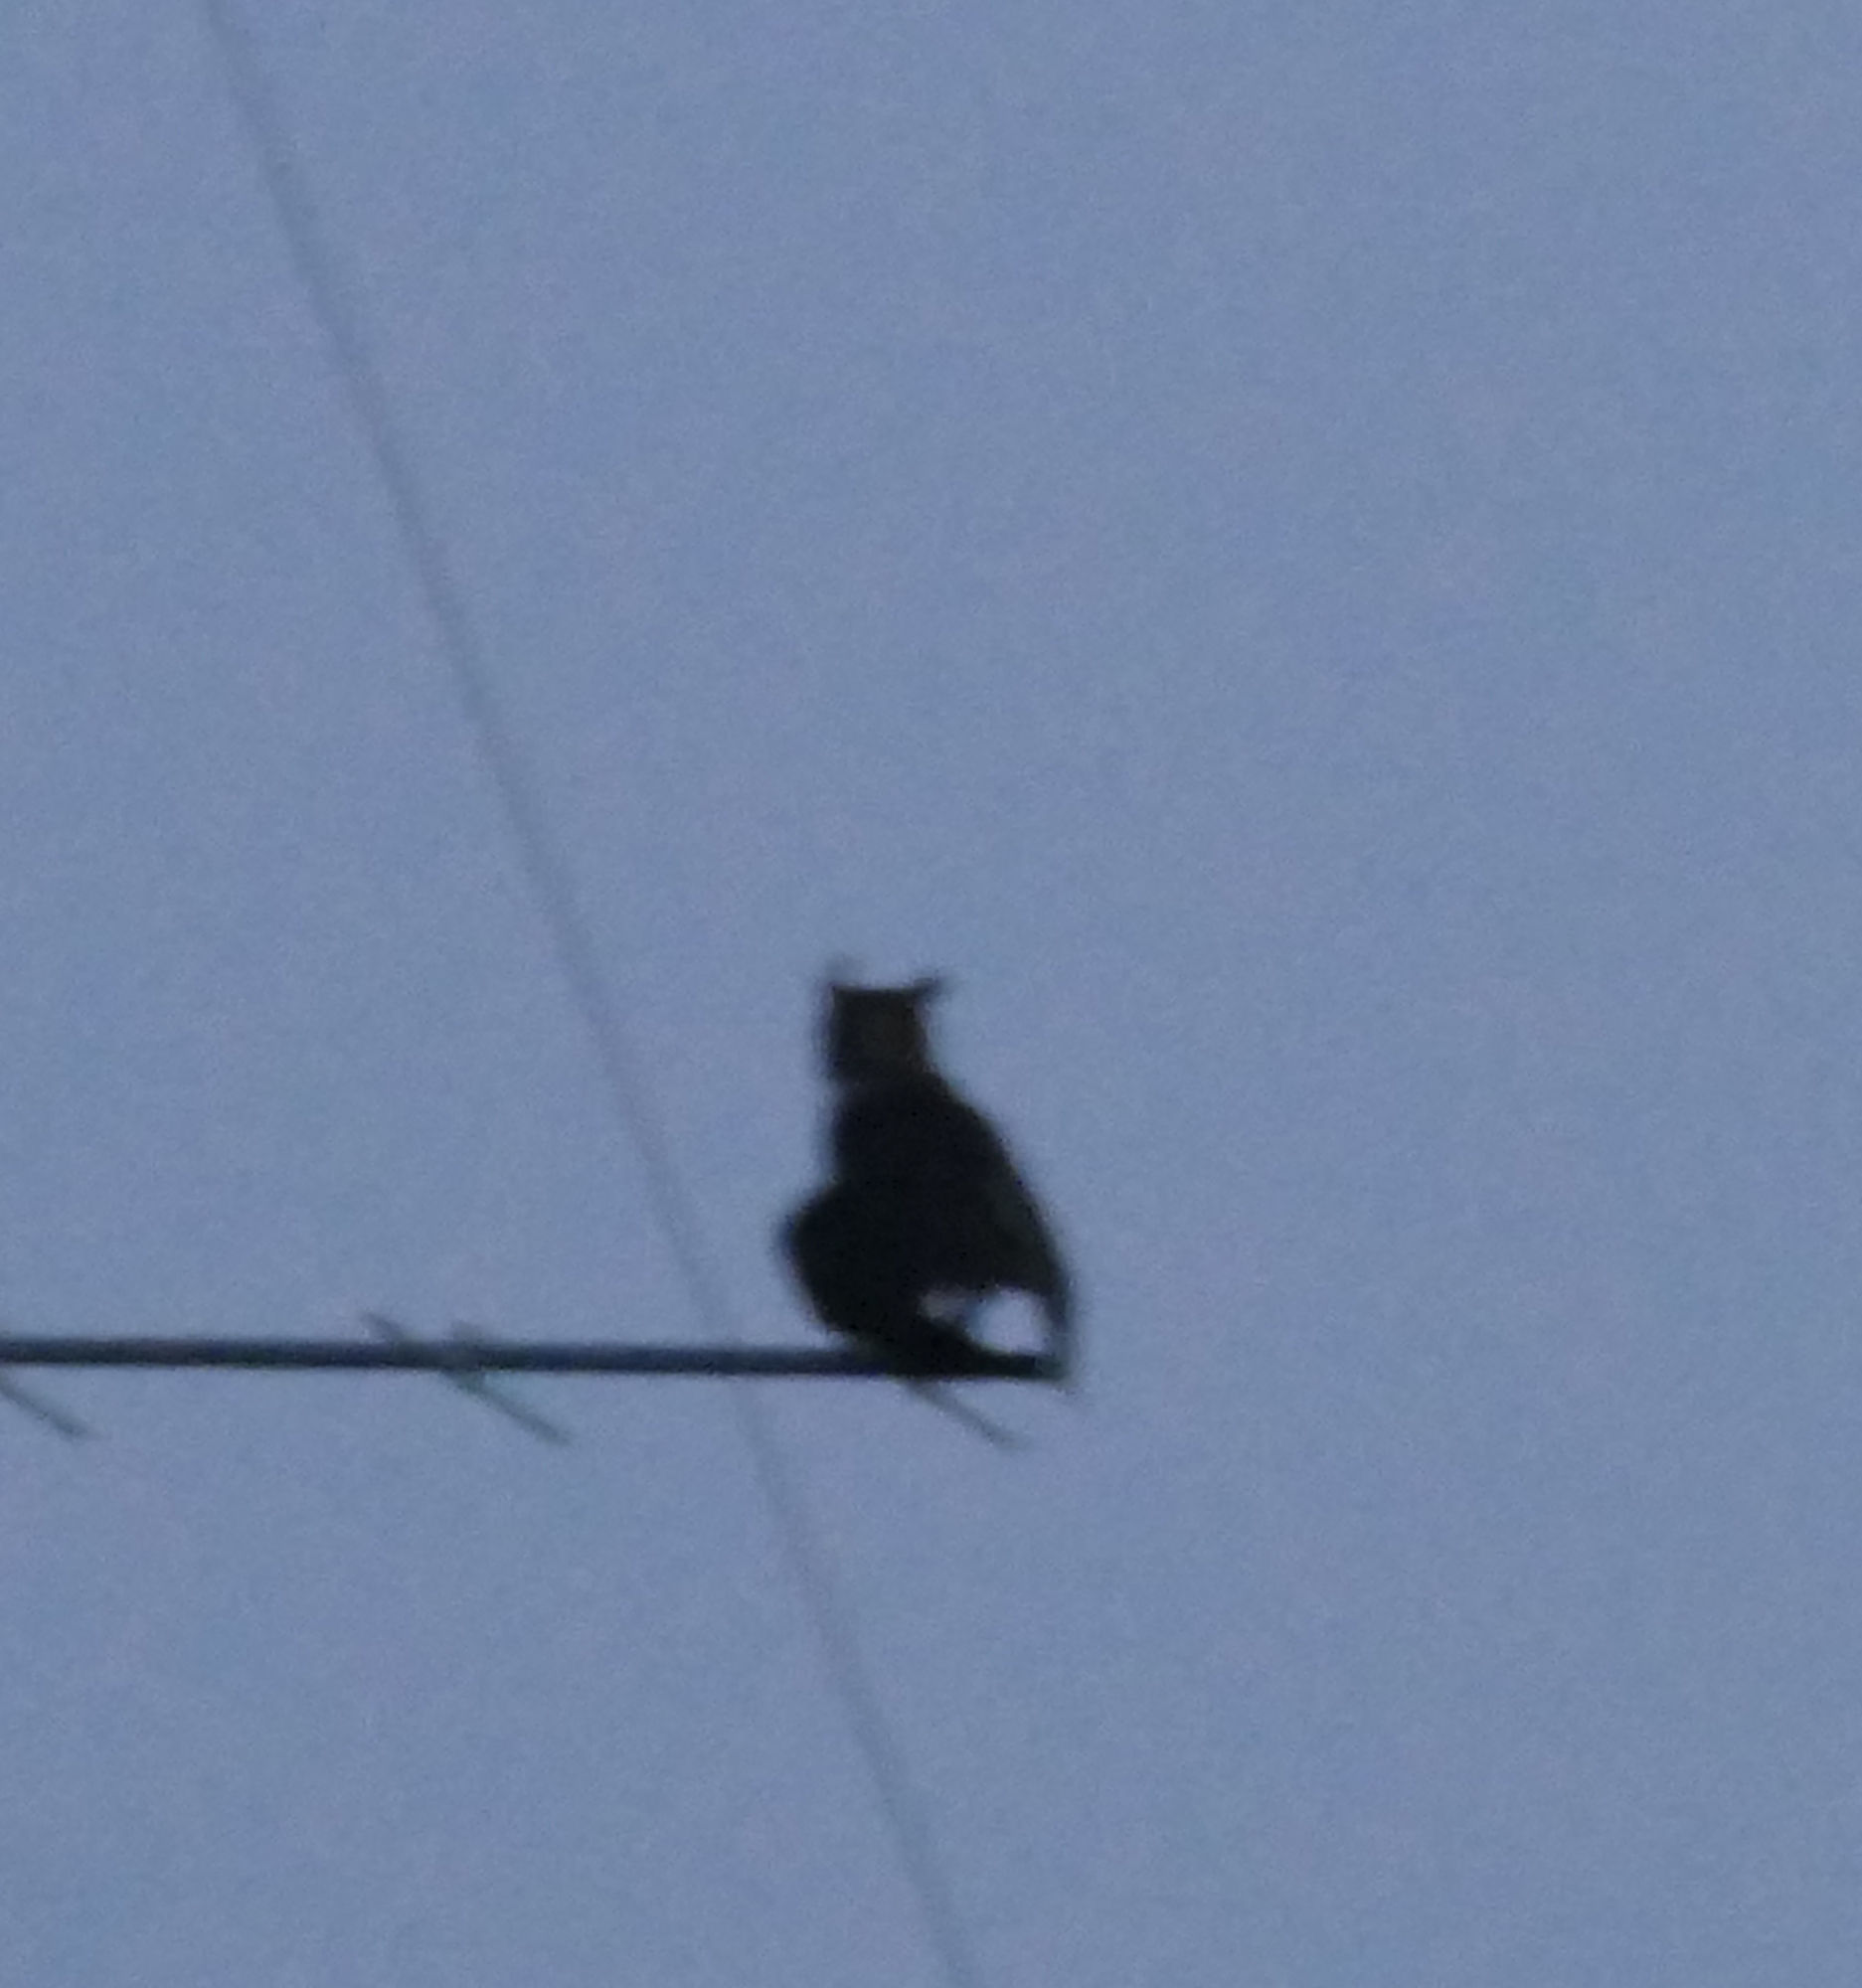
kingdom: Animalia
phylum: Chordata
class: Aves
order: Strigiformes
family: Strigidae
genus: Bubo
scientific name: Bubo virginianus
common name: Great horned owl
